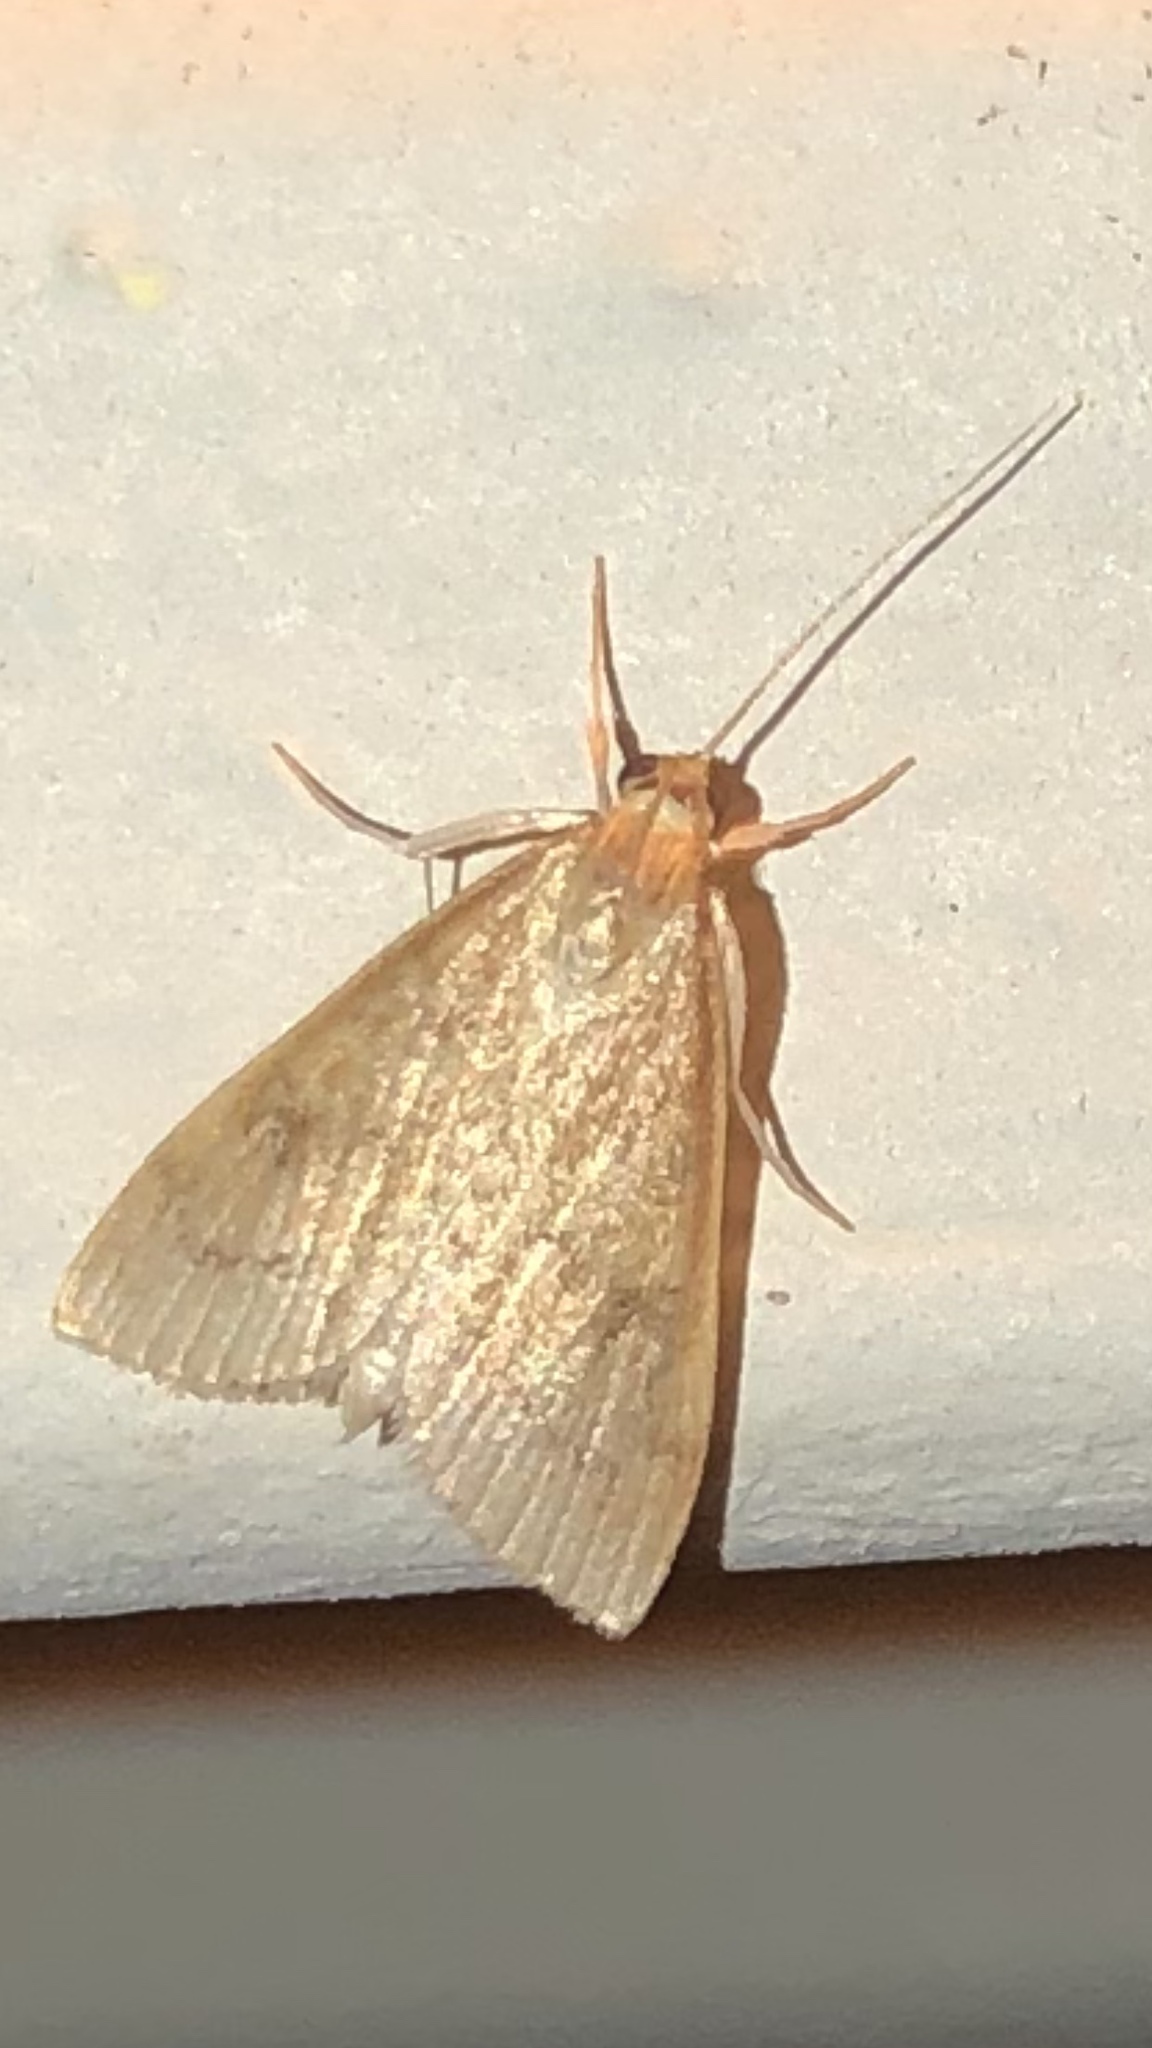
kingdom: Animalia
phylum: Arthropoda
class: Insecta
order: Lepidoptera
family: Crambidae
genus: Udea
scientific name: Udea rubigalis
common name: Celery leaftier moth
